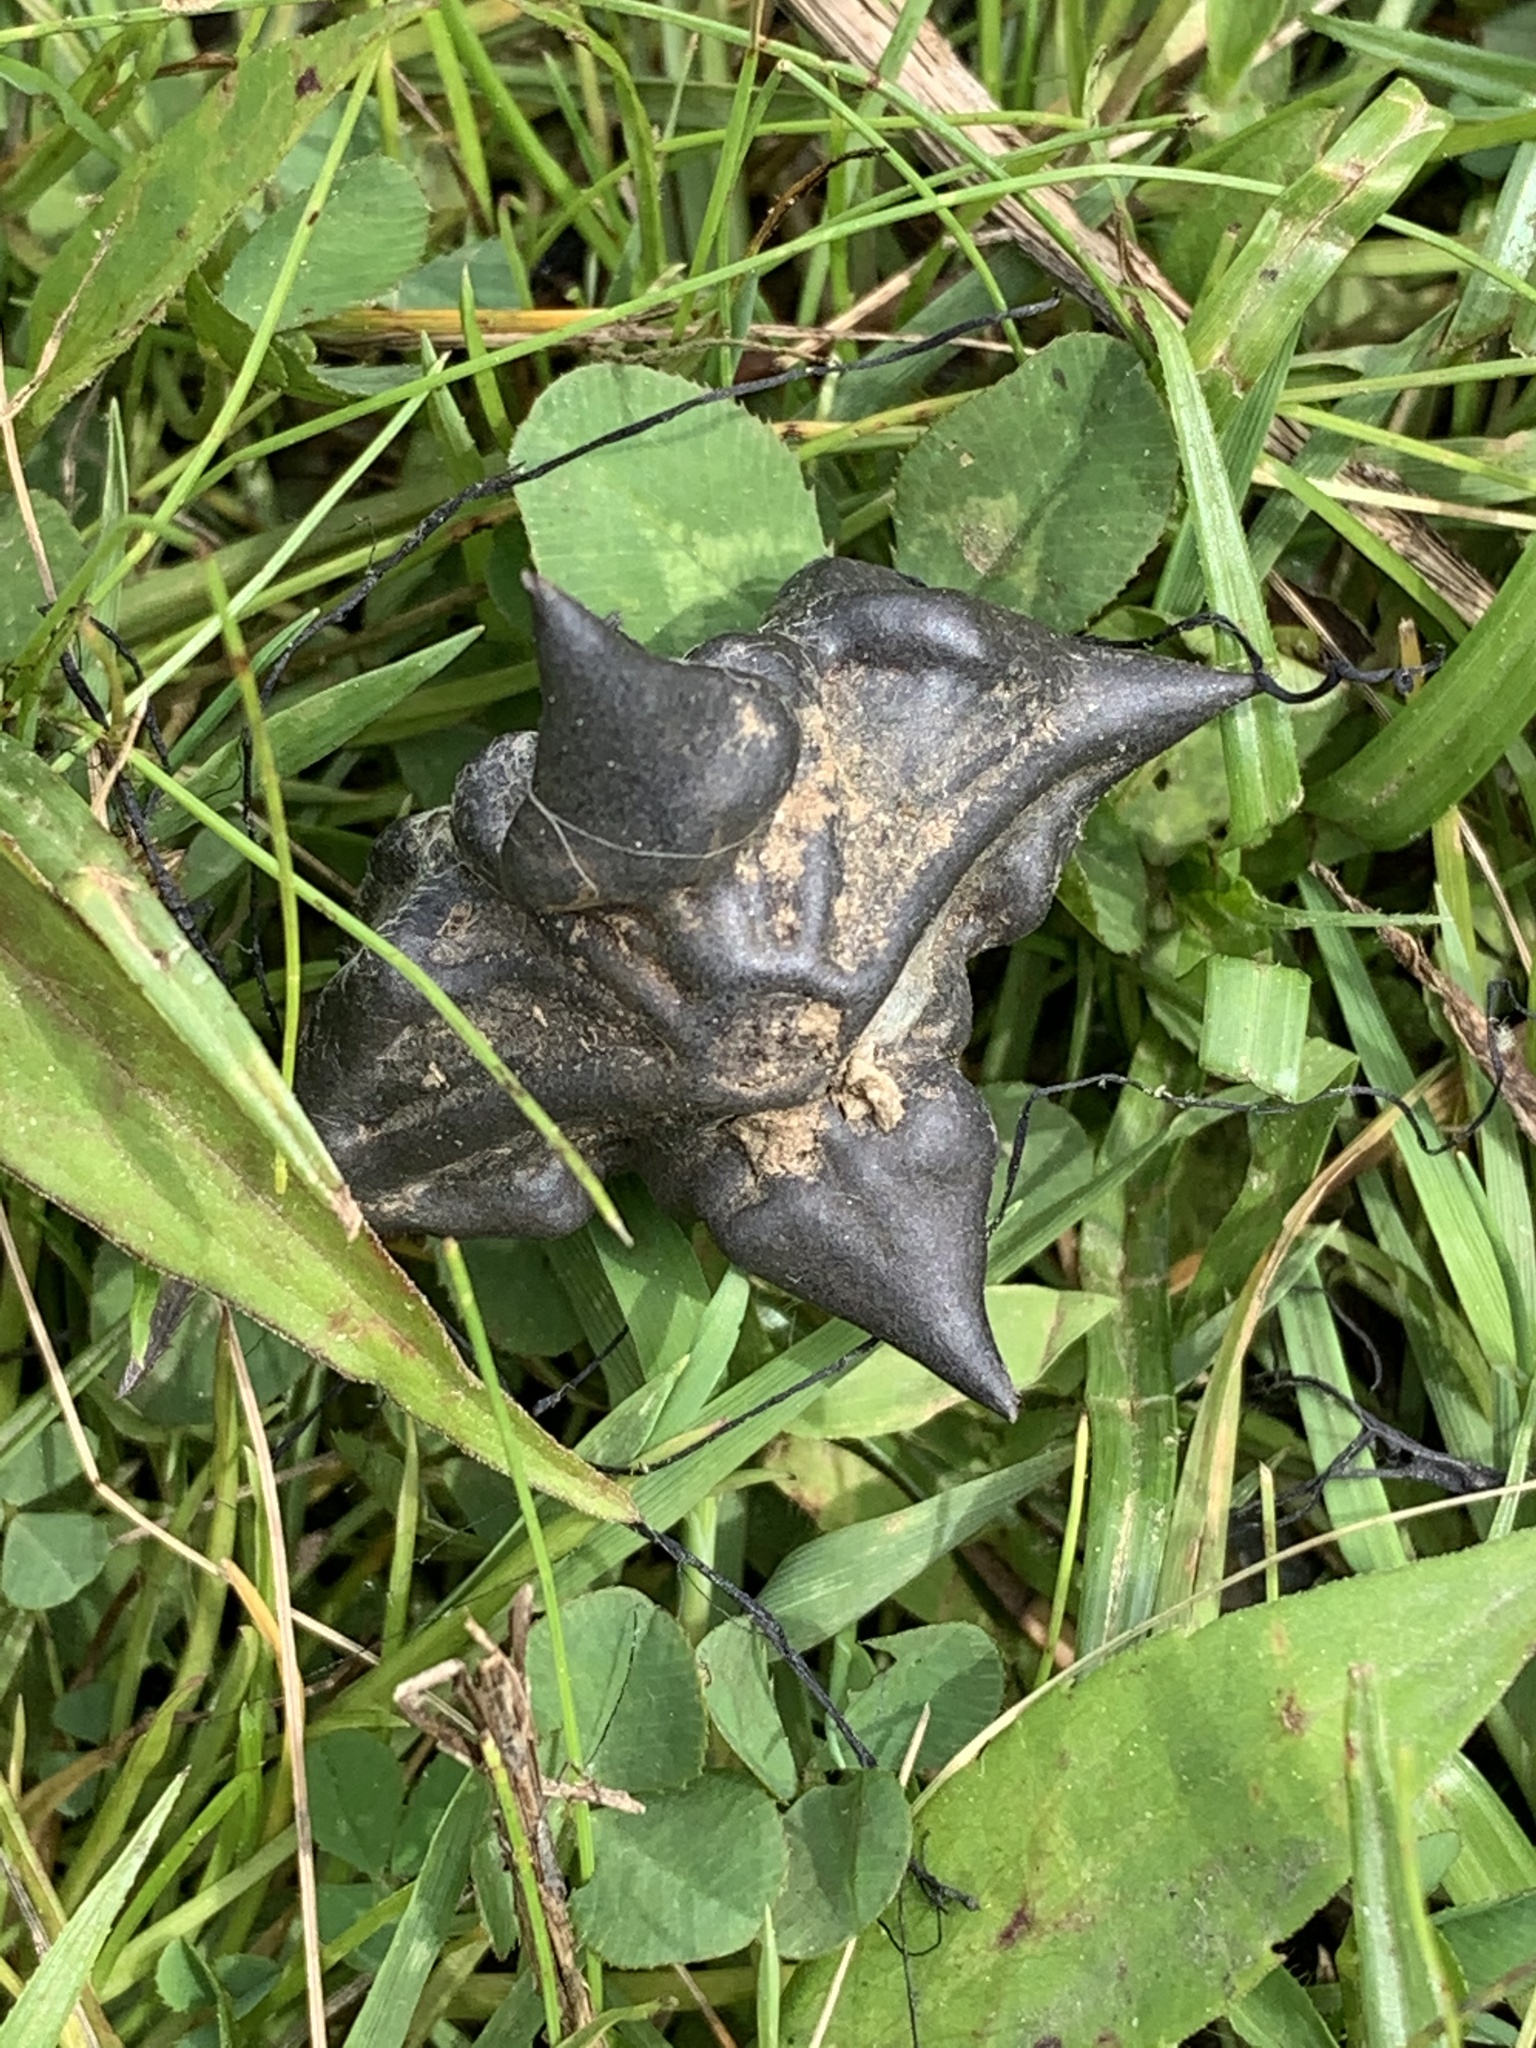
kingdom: Plantae
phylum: Tracheophyta
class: Magnoliopsida
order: Myrtales
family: Lythraceae
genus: Trapa
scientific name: Trapa natans
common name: Water chestnut
